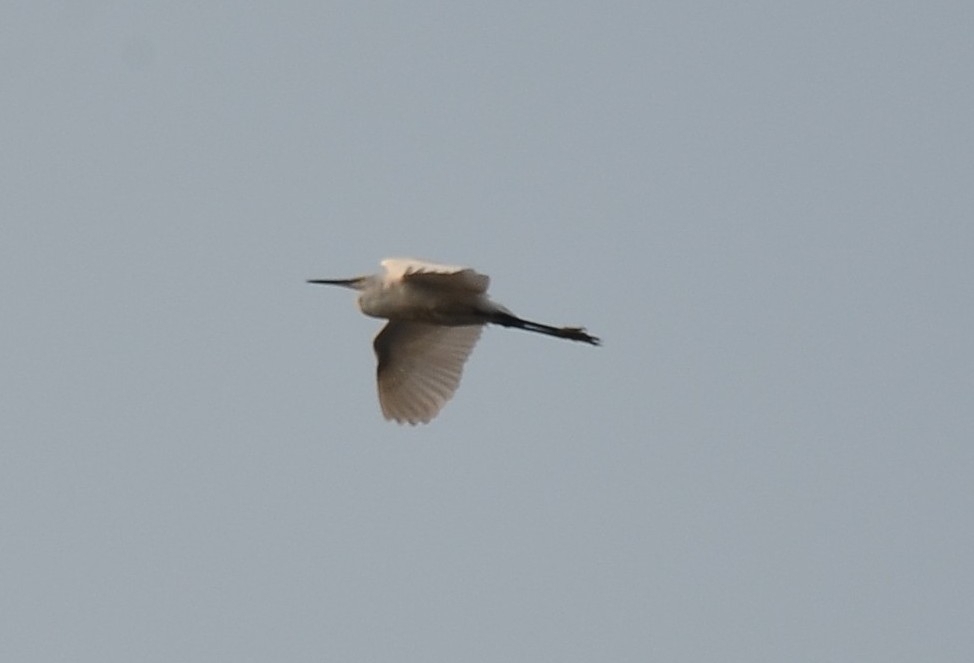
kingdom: Animalia
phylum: Chordata
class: Aves
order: Pelecaniformes
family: Ardeidae
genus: Egretta
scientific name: Egretta garzetta
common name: Little egret
